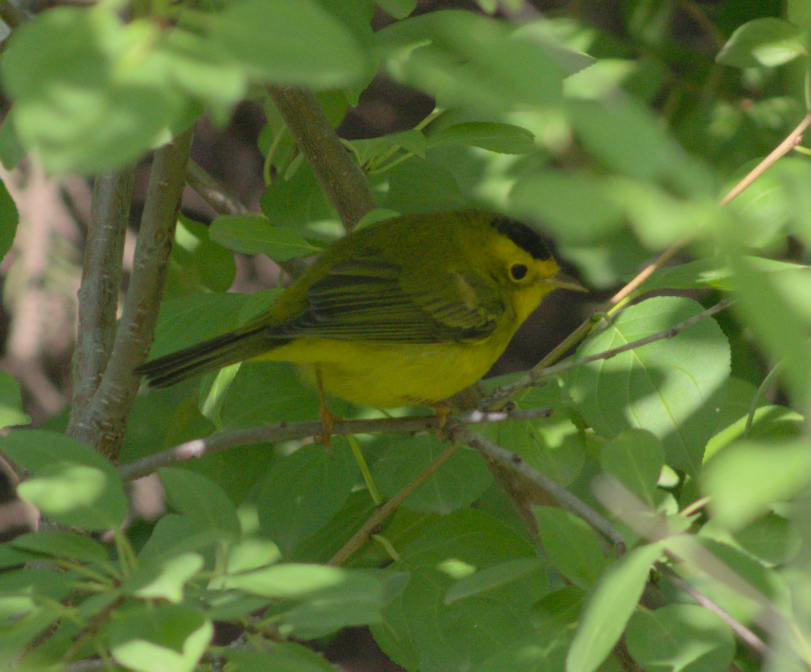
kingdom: Animalia
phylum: Chordata
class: Aves
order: Passeriformes
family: Parulidae
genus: Cardellina
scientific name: Cardellina pusilla
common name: Wilson's warbler
